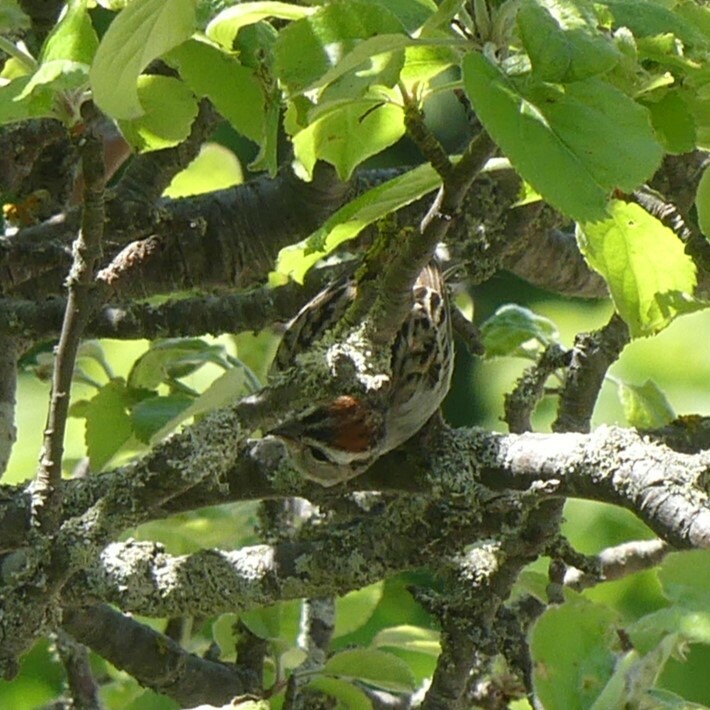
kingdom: Animalia
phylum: Chordata
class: Aves
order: Passeriformes
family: Passerellidae
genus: Spizella
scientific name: Spizella passerina
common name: Chipping sparrow
